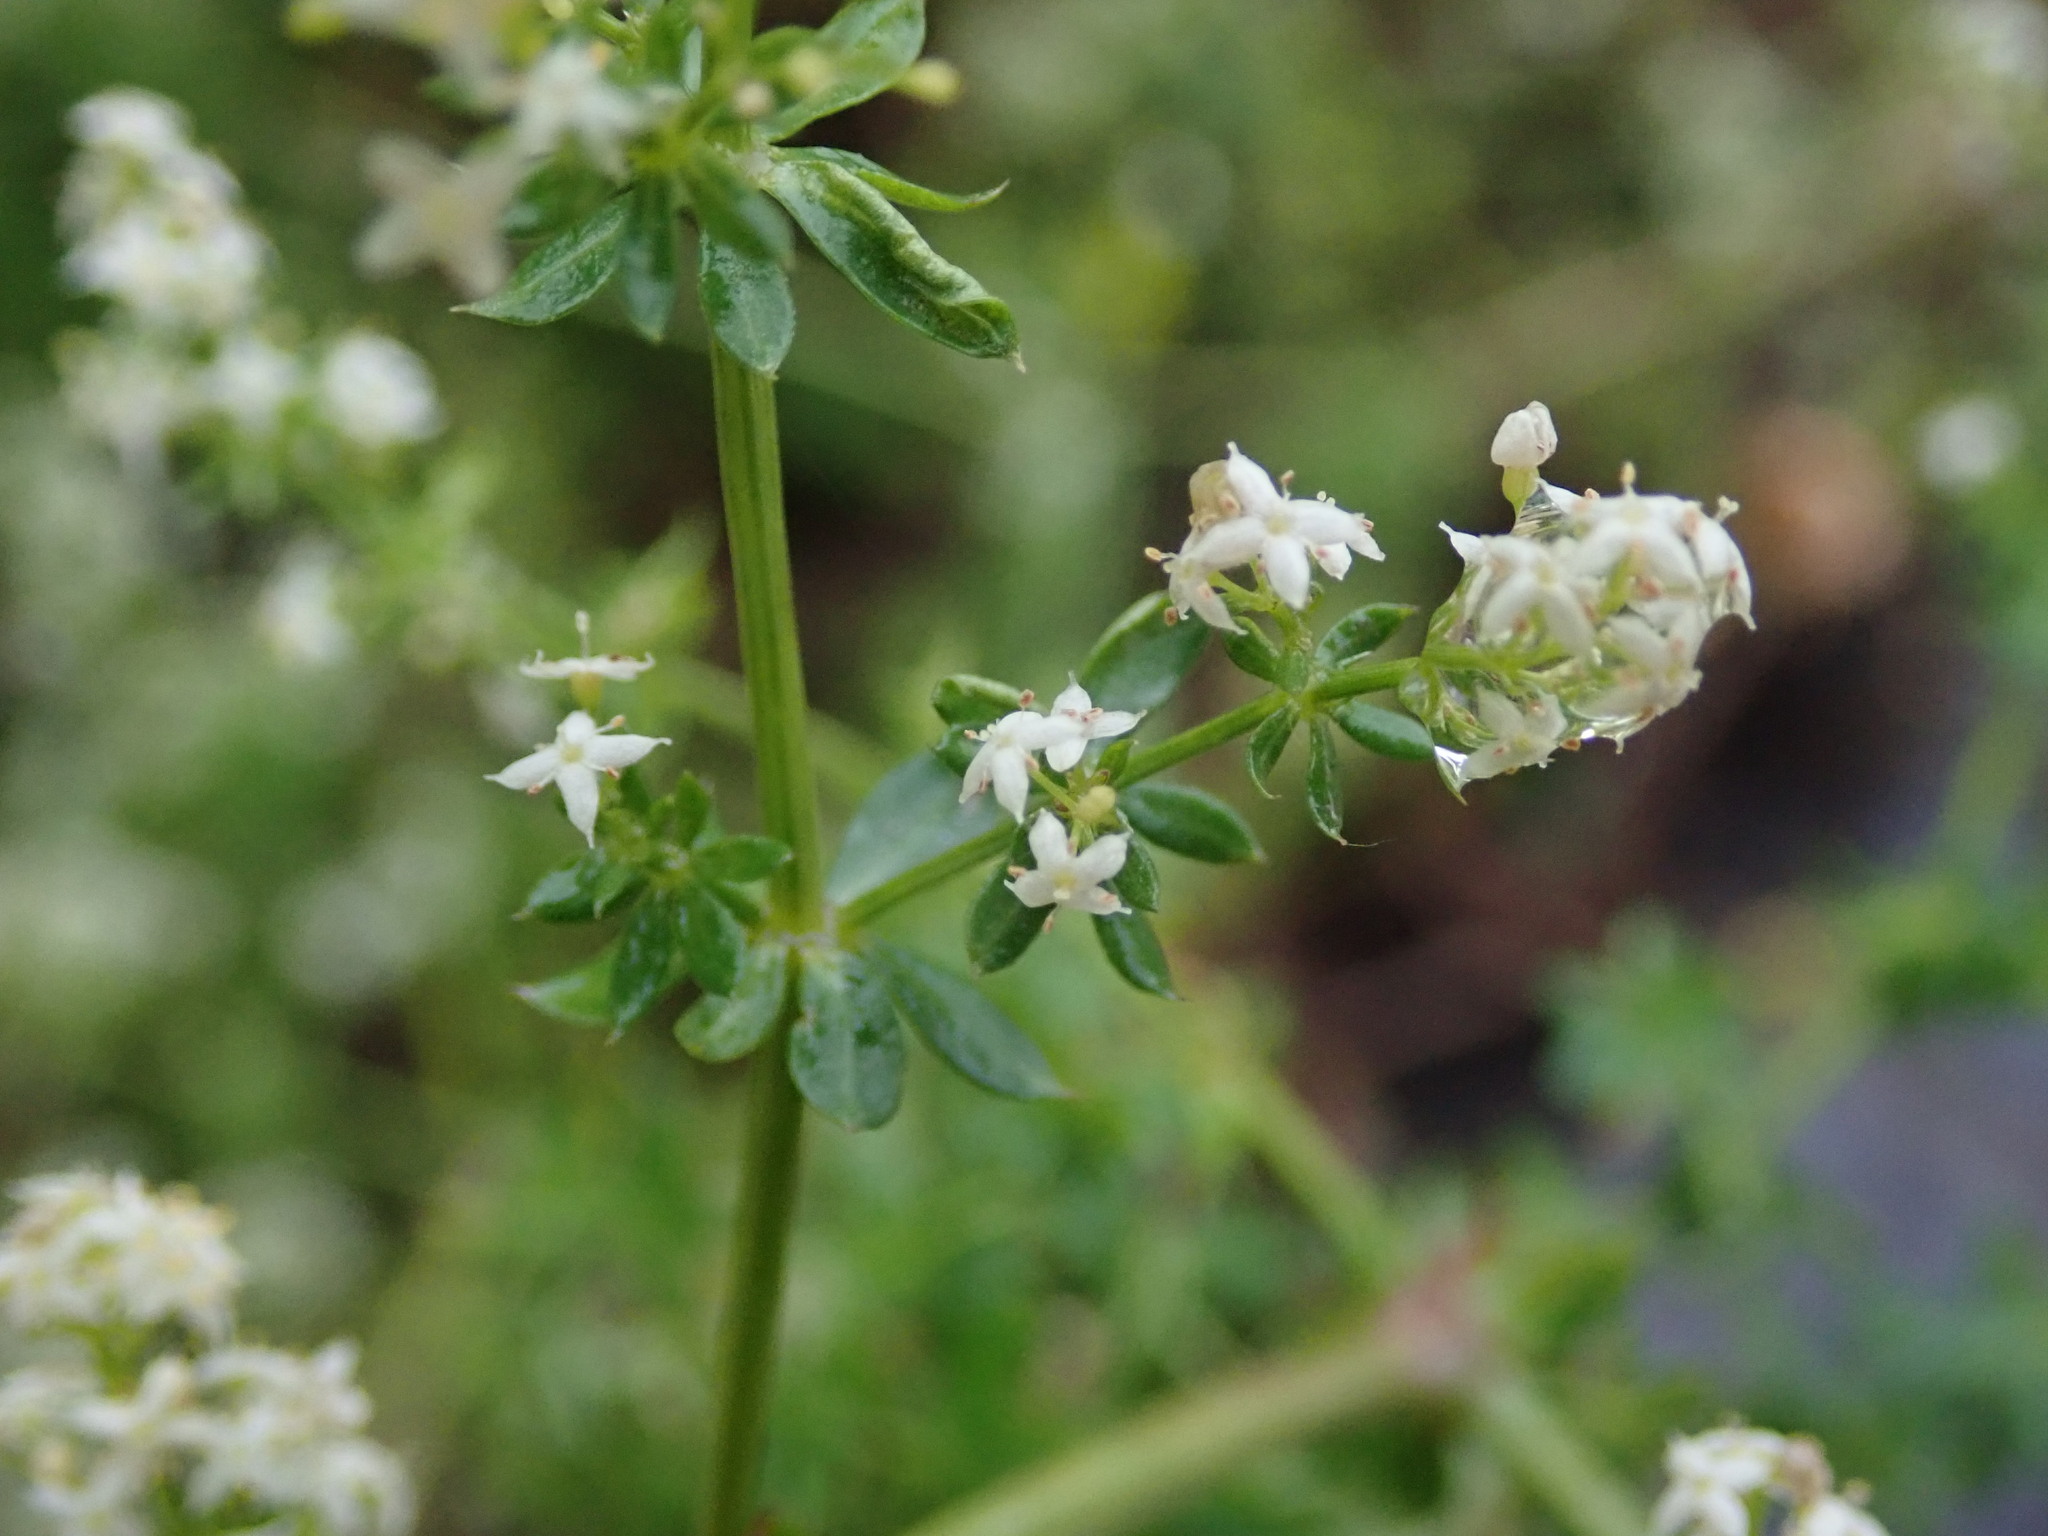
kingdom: Plantae
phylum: Tracheophyta
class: Magnoliopsida
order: Gentianales
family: Rubiaceae
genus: Galium
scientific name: Galium album
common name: White bedstraw
